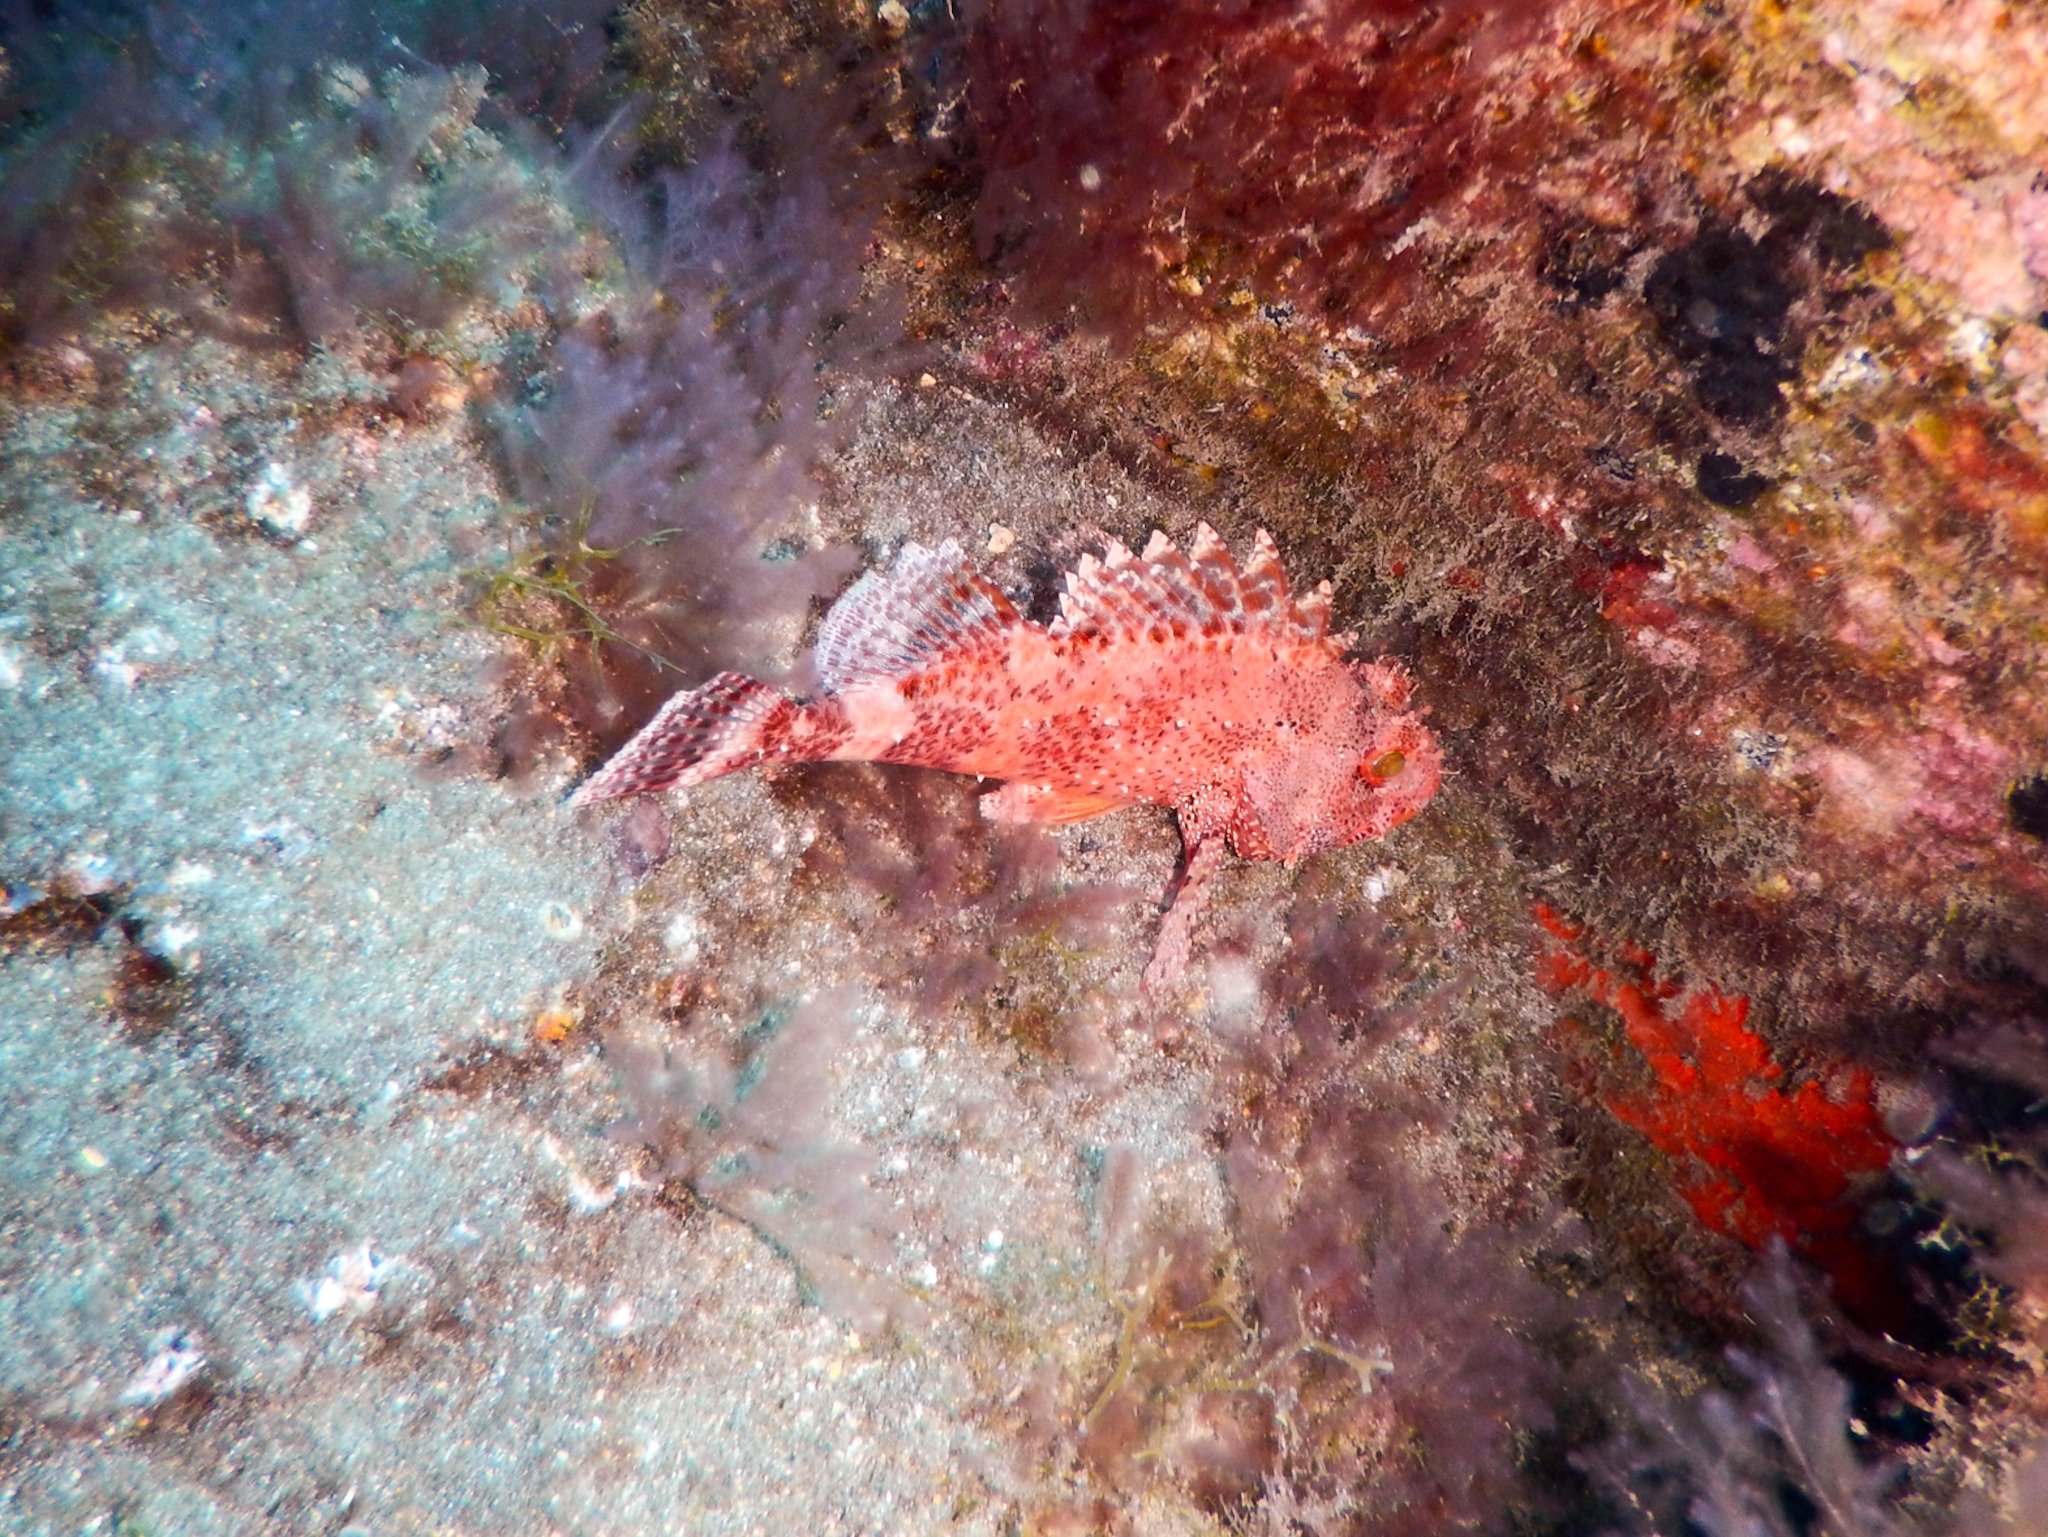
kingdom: Animalia
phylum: Chordata
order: Scorpaeniformes
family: Scorpaenidae
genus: Scorpaena
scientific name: Scorpaena maderensis
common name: Madeira rockfish
